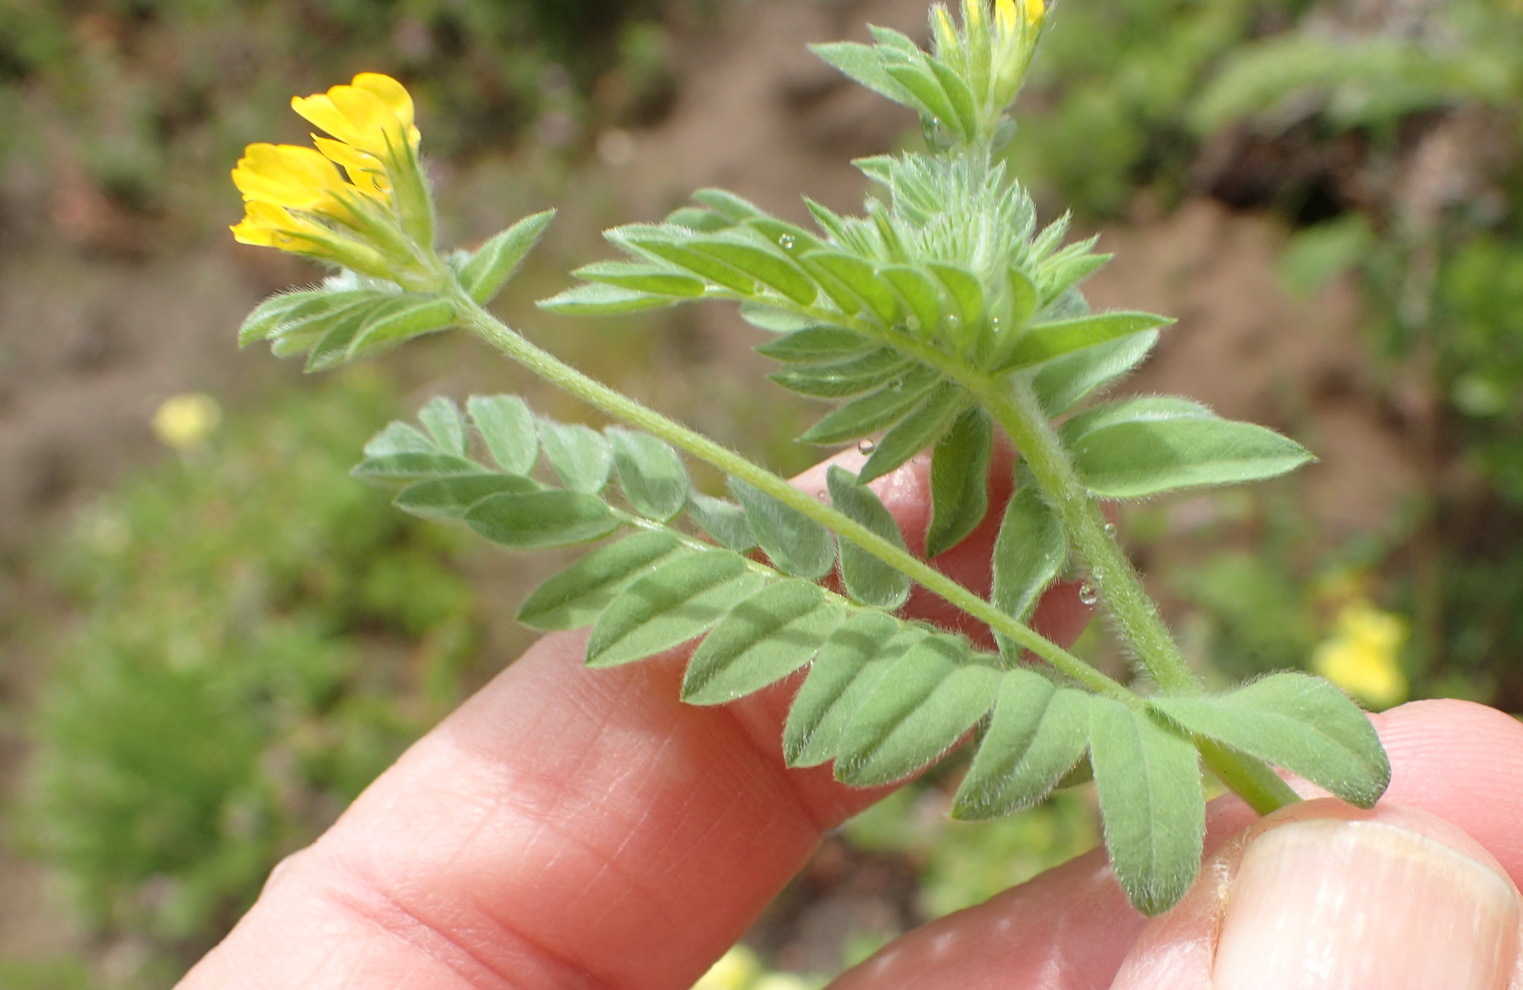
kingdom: Plantae
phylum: Tracheophyta
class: Magnoliopsida
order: Fabales
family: Fabaceae
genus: Ornithopus
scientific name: Ornithopus compressus
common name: Yellow serradella
